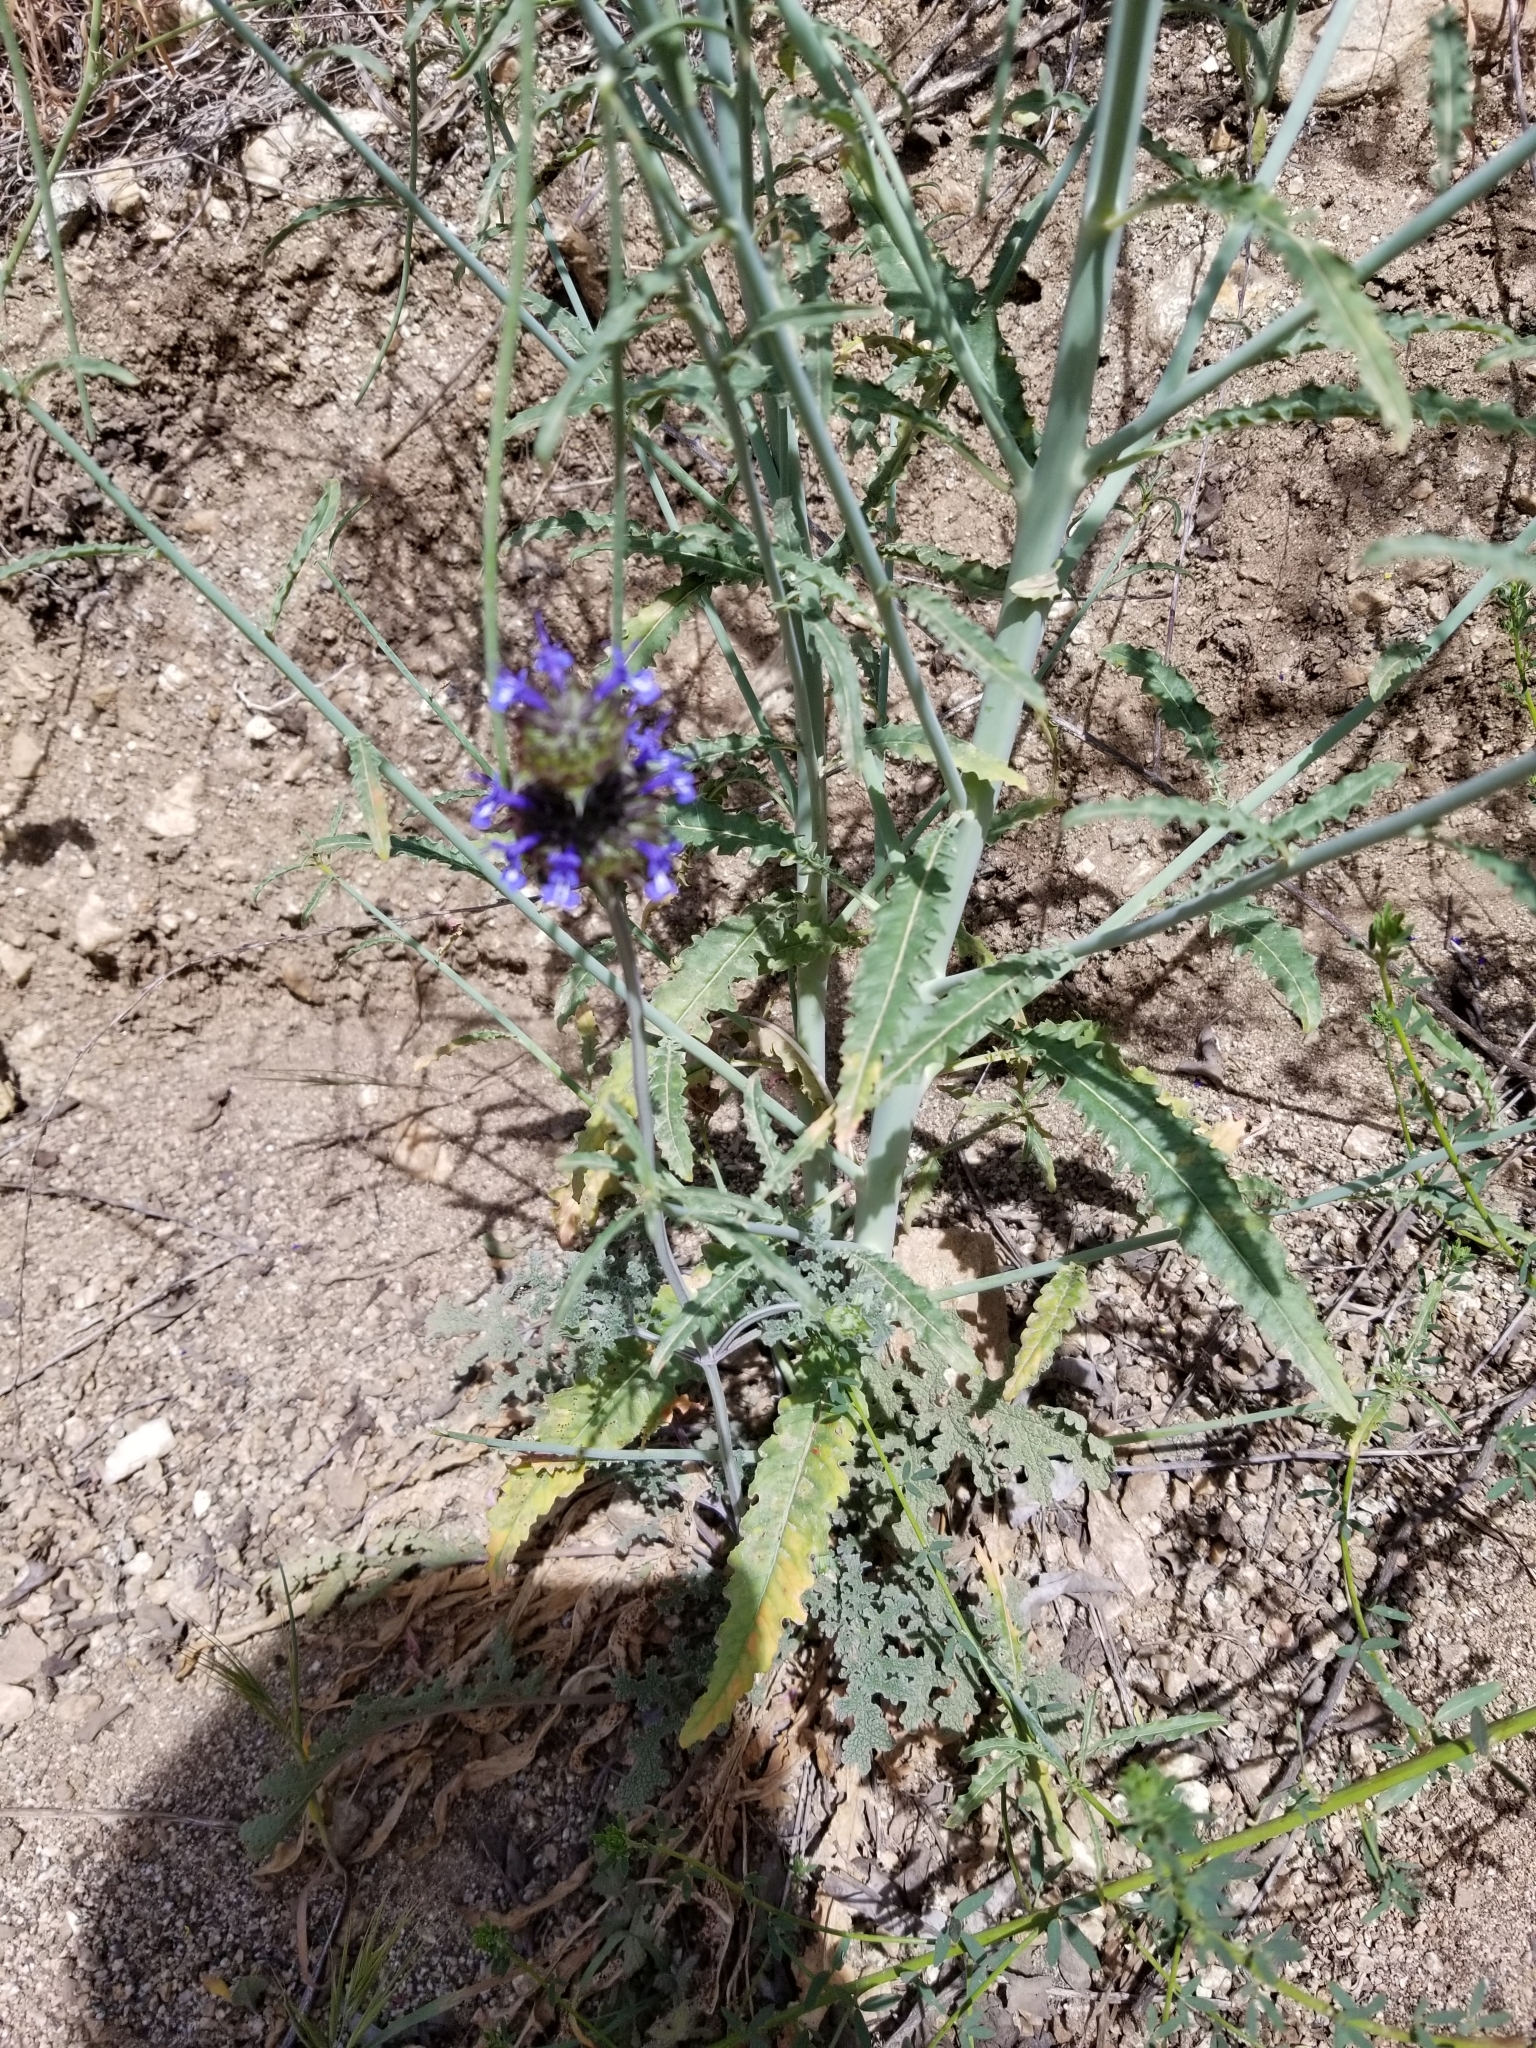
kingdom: Plantae
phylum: Tracheophyta
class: Magnoliopsida
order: Lamiales
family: Lamiaceae
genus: Salvia
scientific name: Salvia columbariae
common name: Chia
